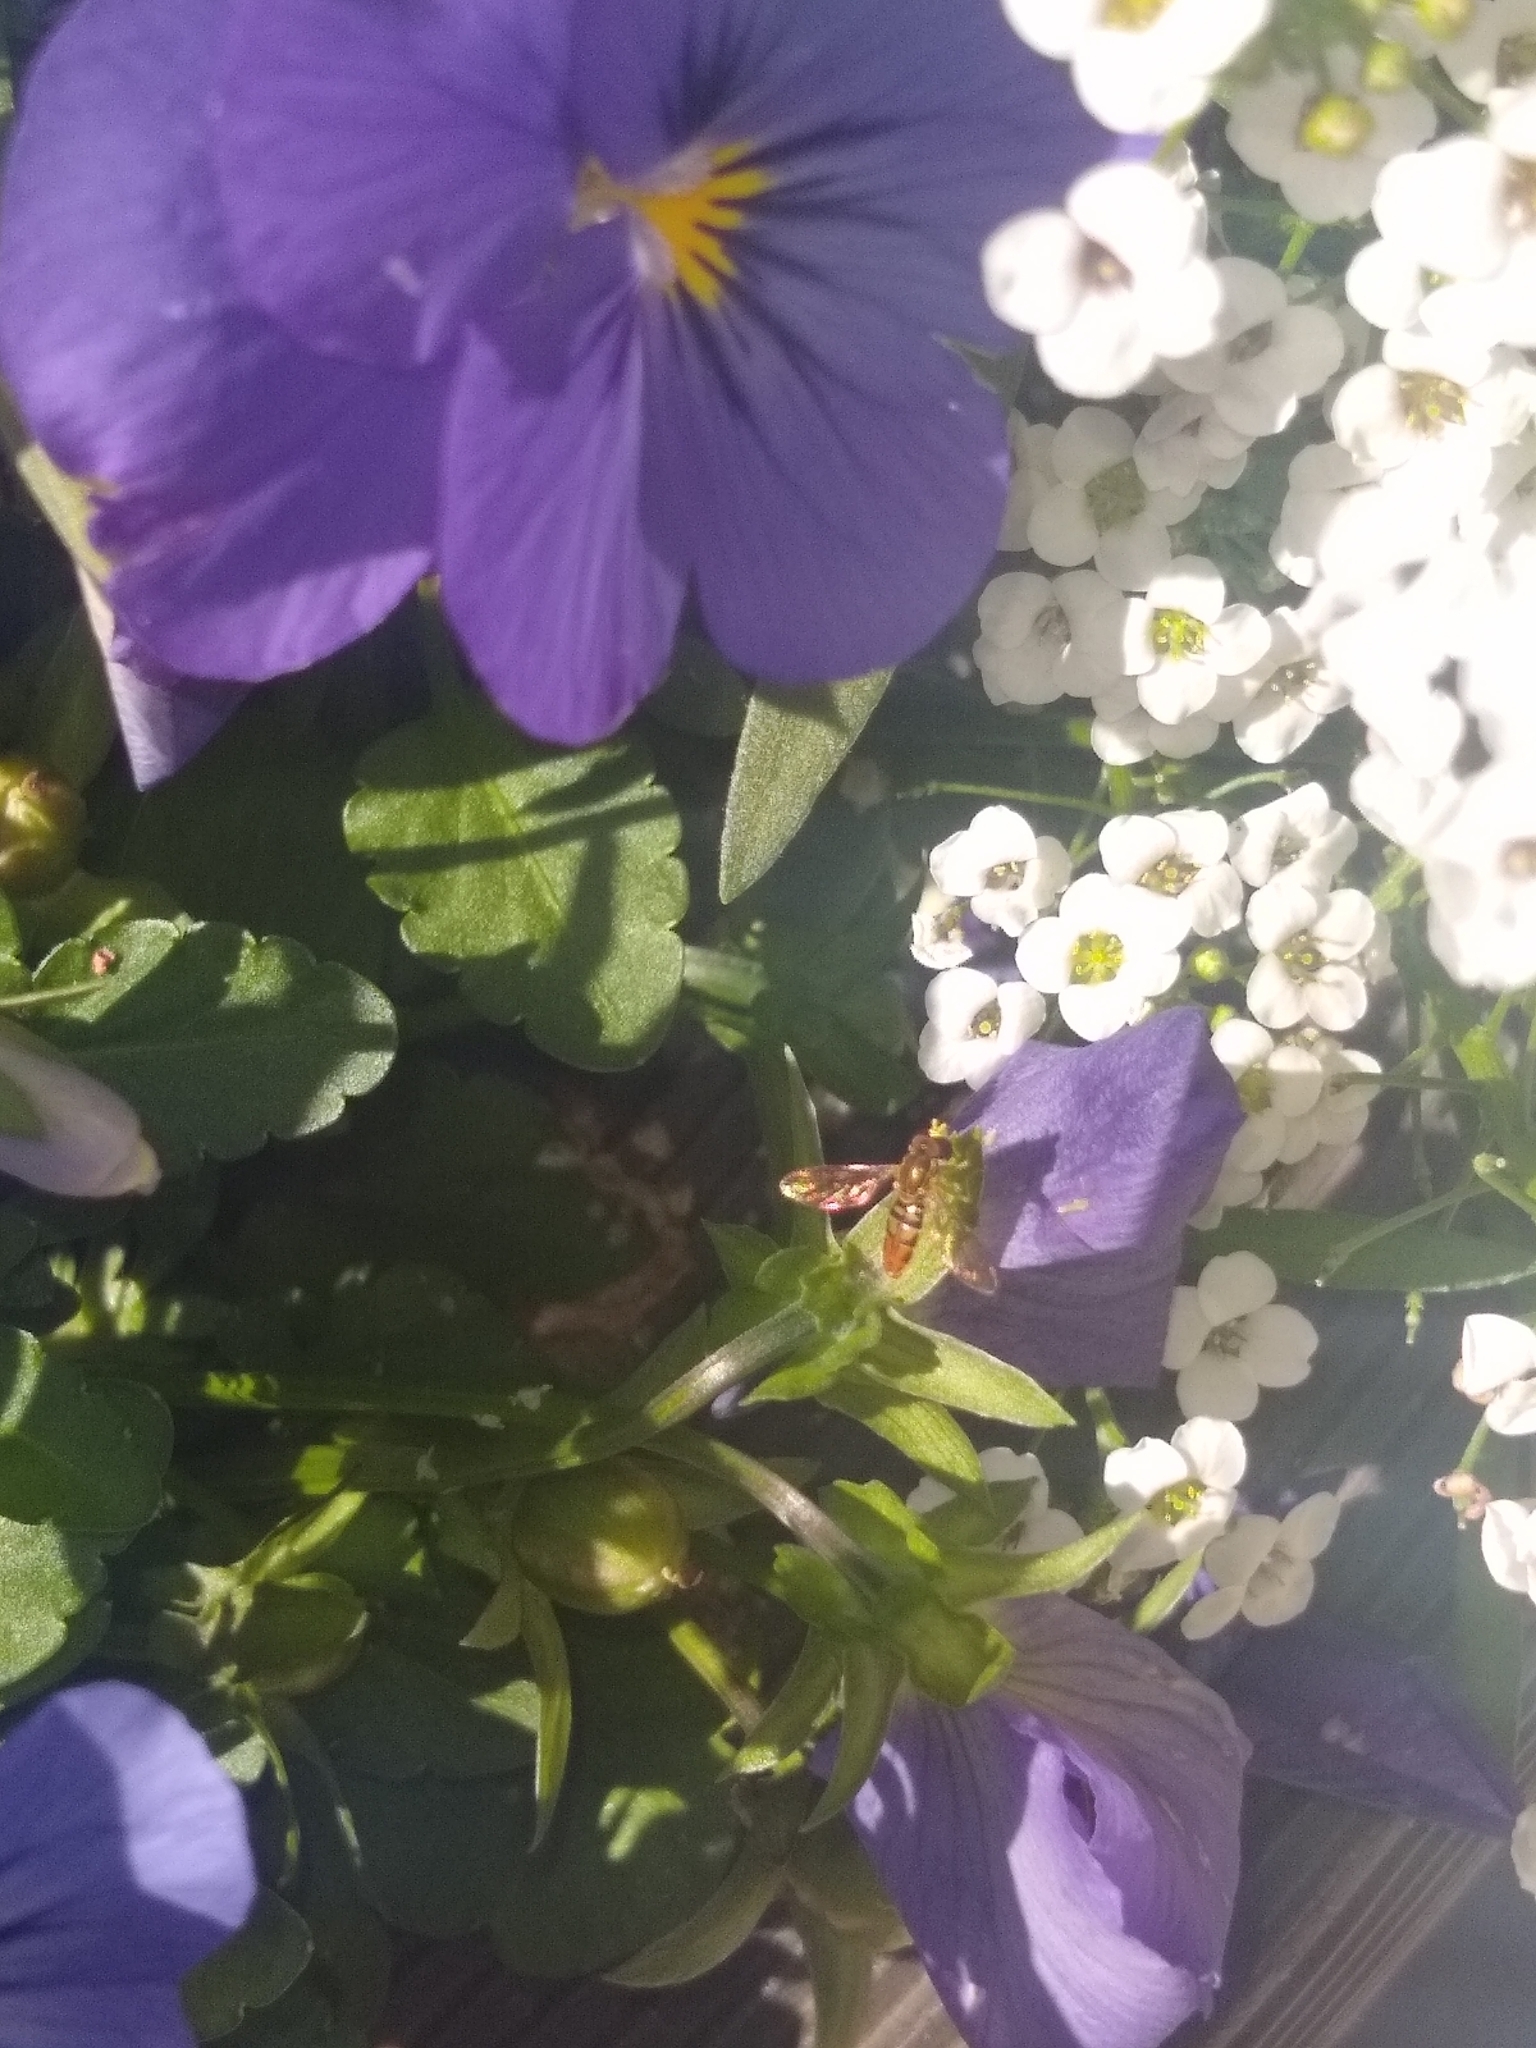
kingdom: Animalia
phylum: Arthropoda
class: Insecta
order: Diptera
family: Syrphidae
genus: Toxomerus
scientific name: Toxomerus marginatus
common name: Syrphid fly
